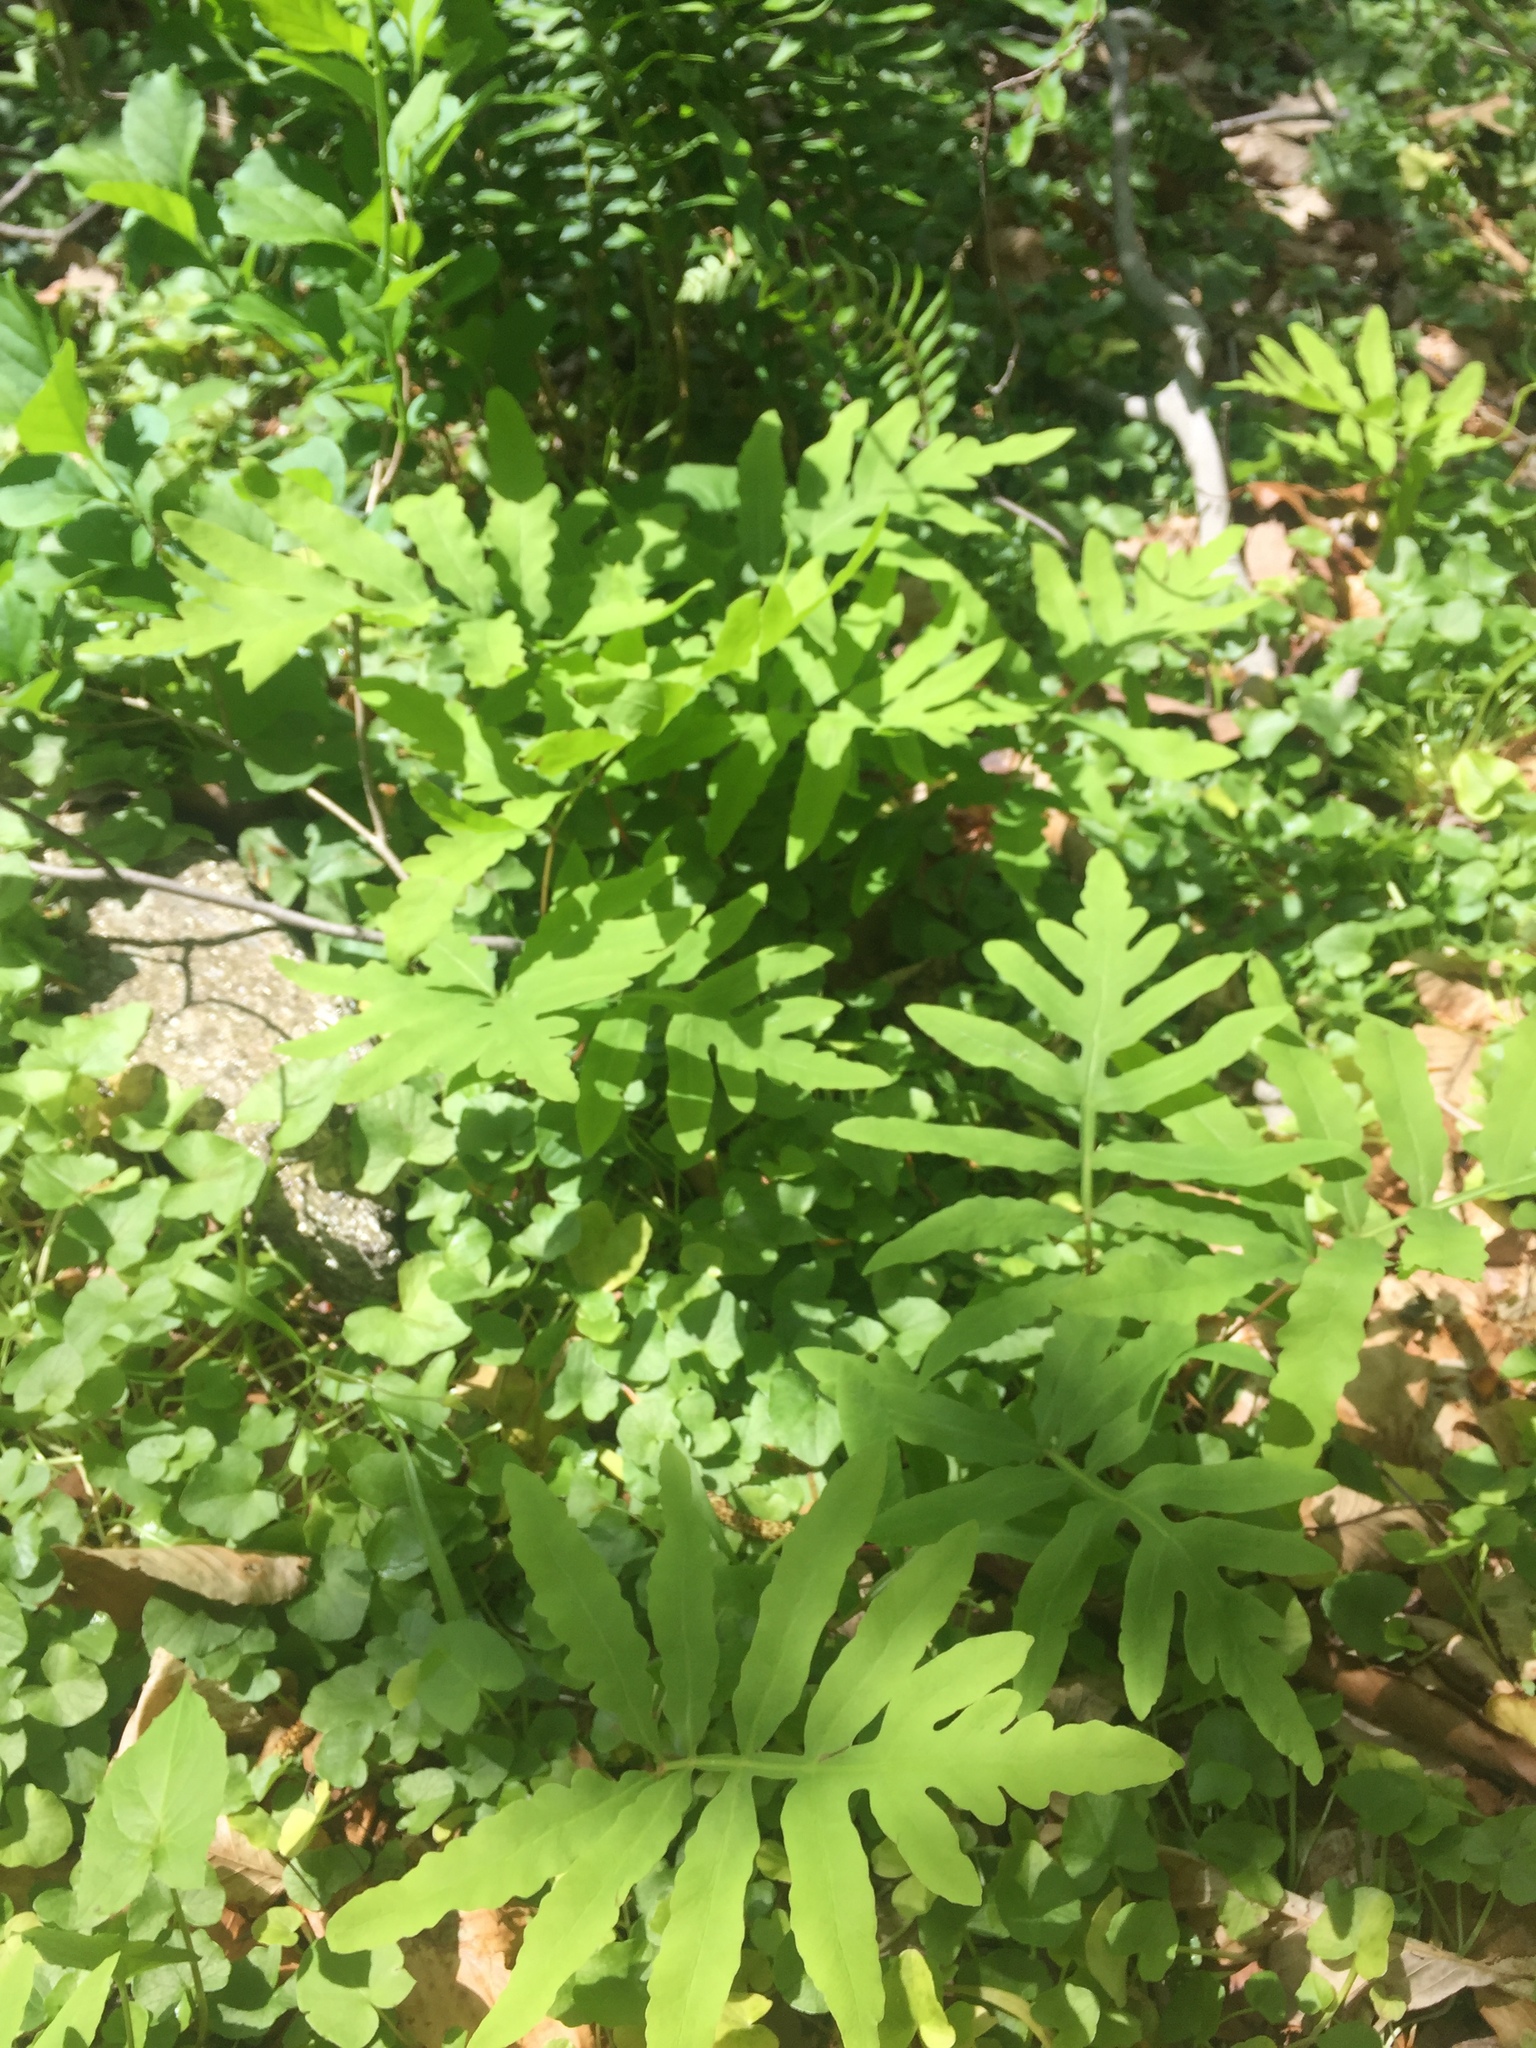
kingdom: Plantae
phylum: Tracheophyta
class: Polypodiopsida
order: Polypodiales
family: Onocleaceae
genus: Onoclea
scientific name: Onoclea sensibilis
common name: Sensitive fern
